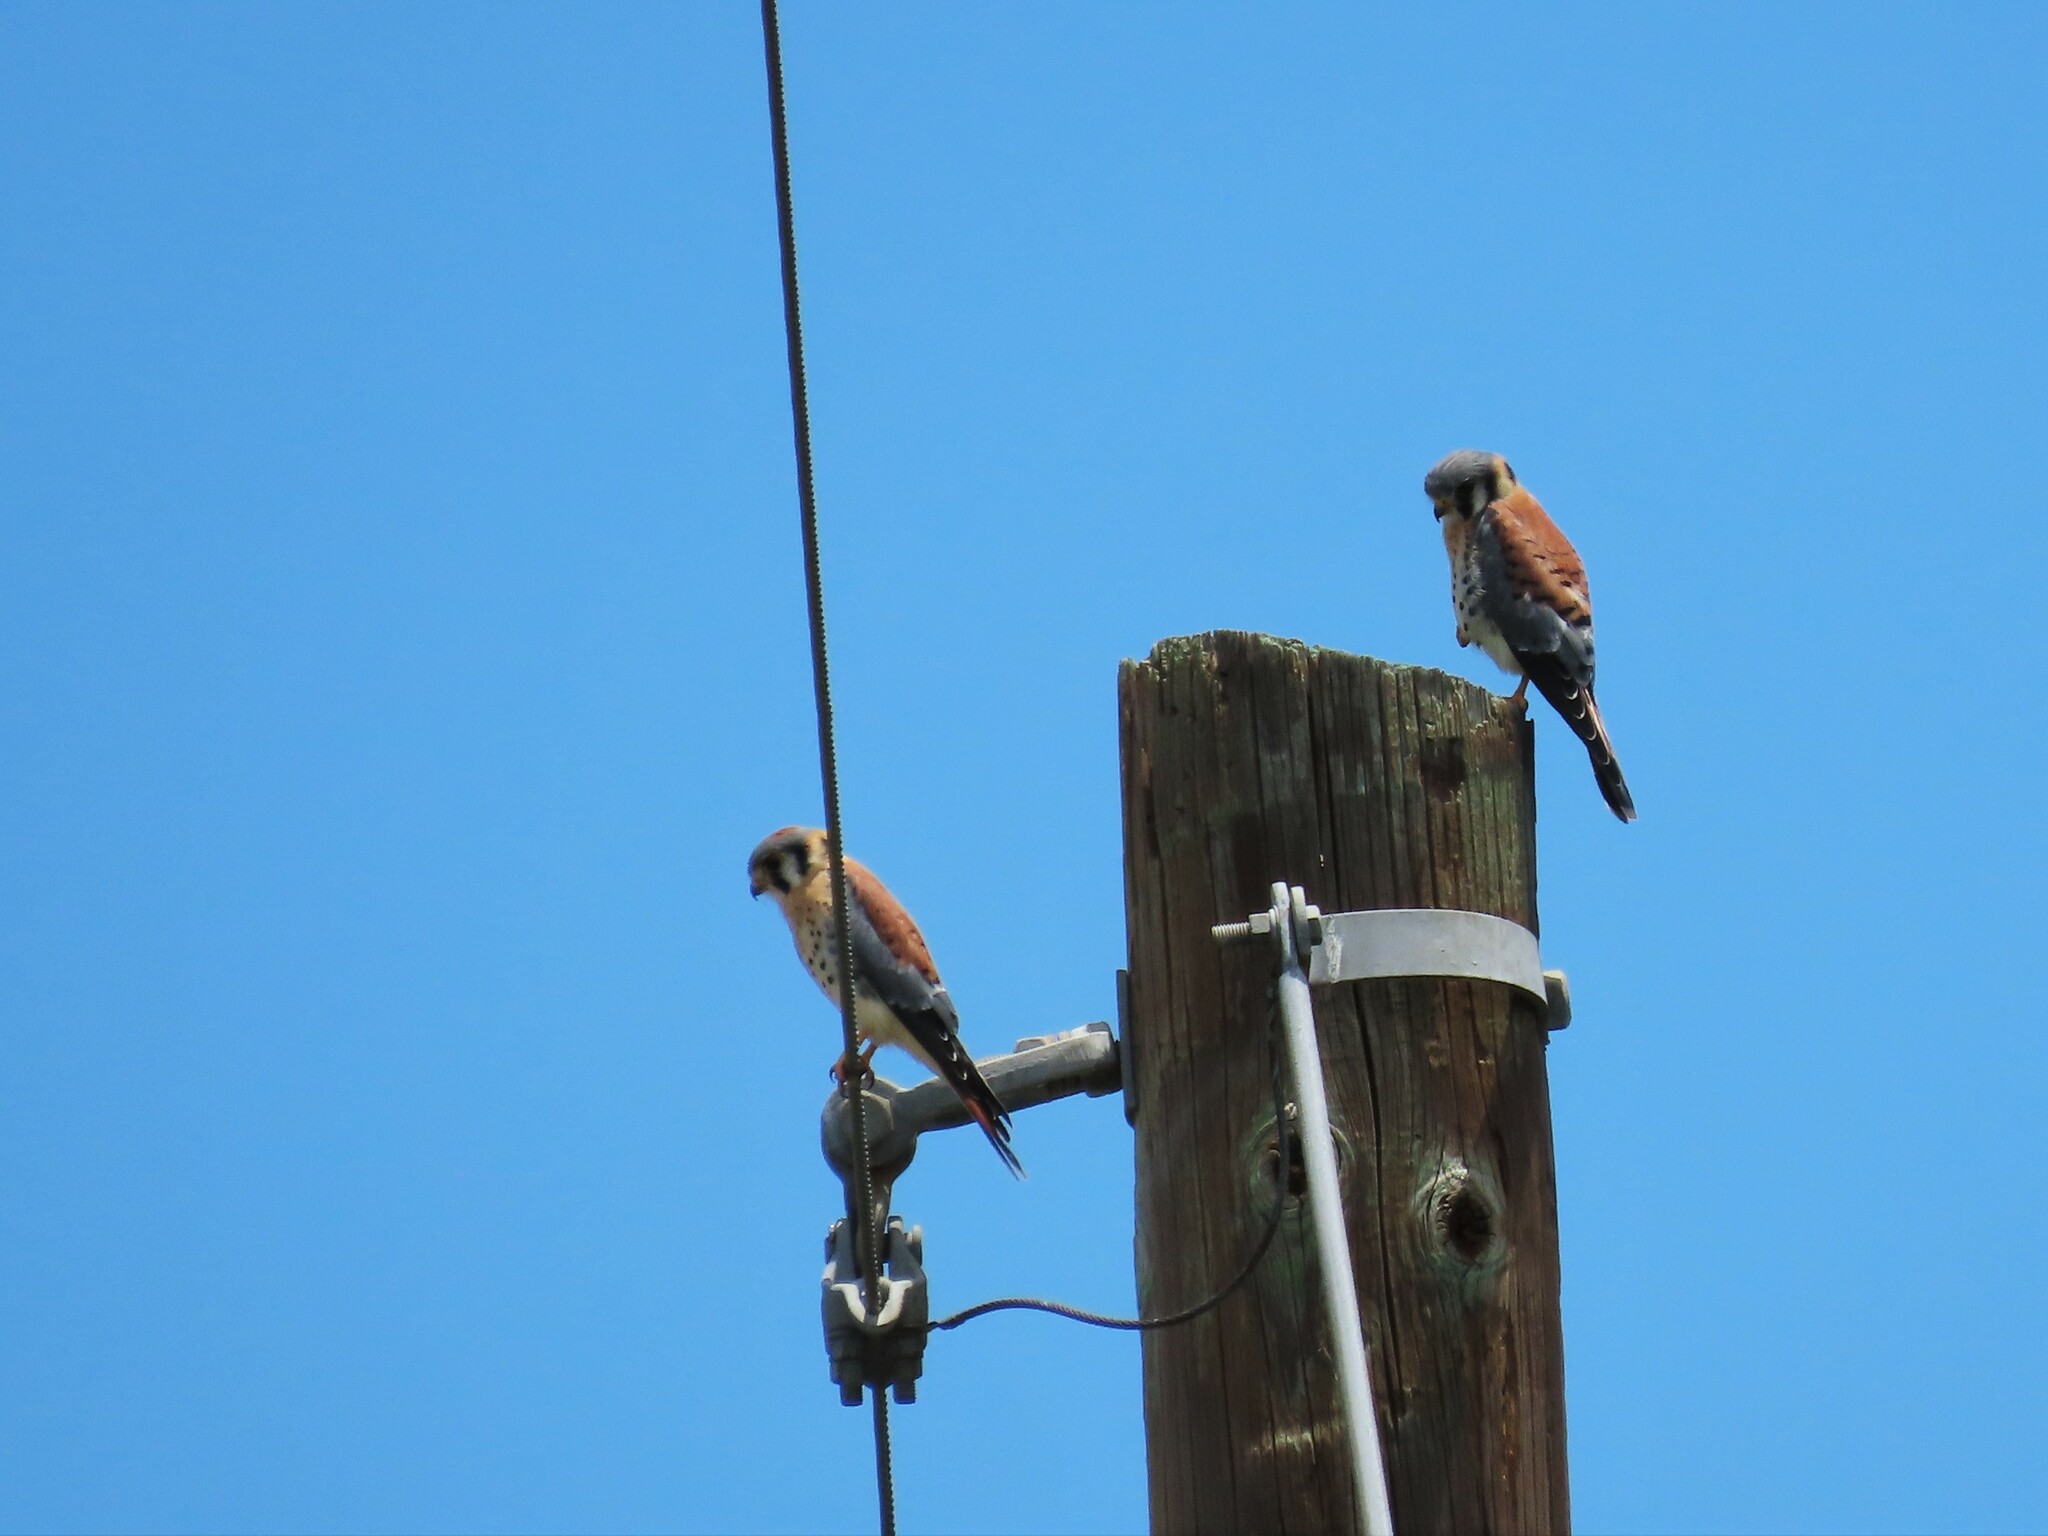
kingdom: Animalia
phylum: Chordata
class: Aves
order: Falconiformes
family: Falconidae
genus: Falco
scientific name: Falco sparverius
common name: American kestrel
